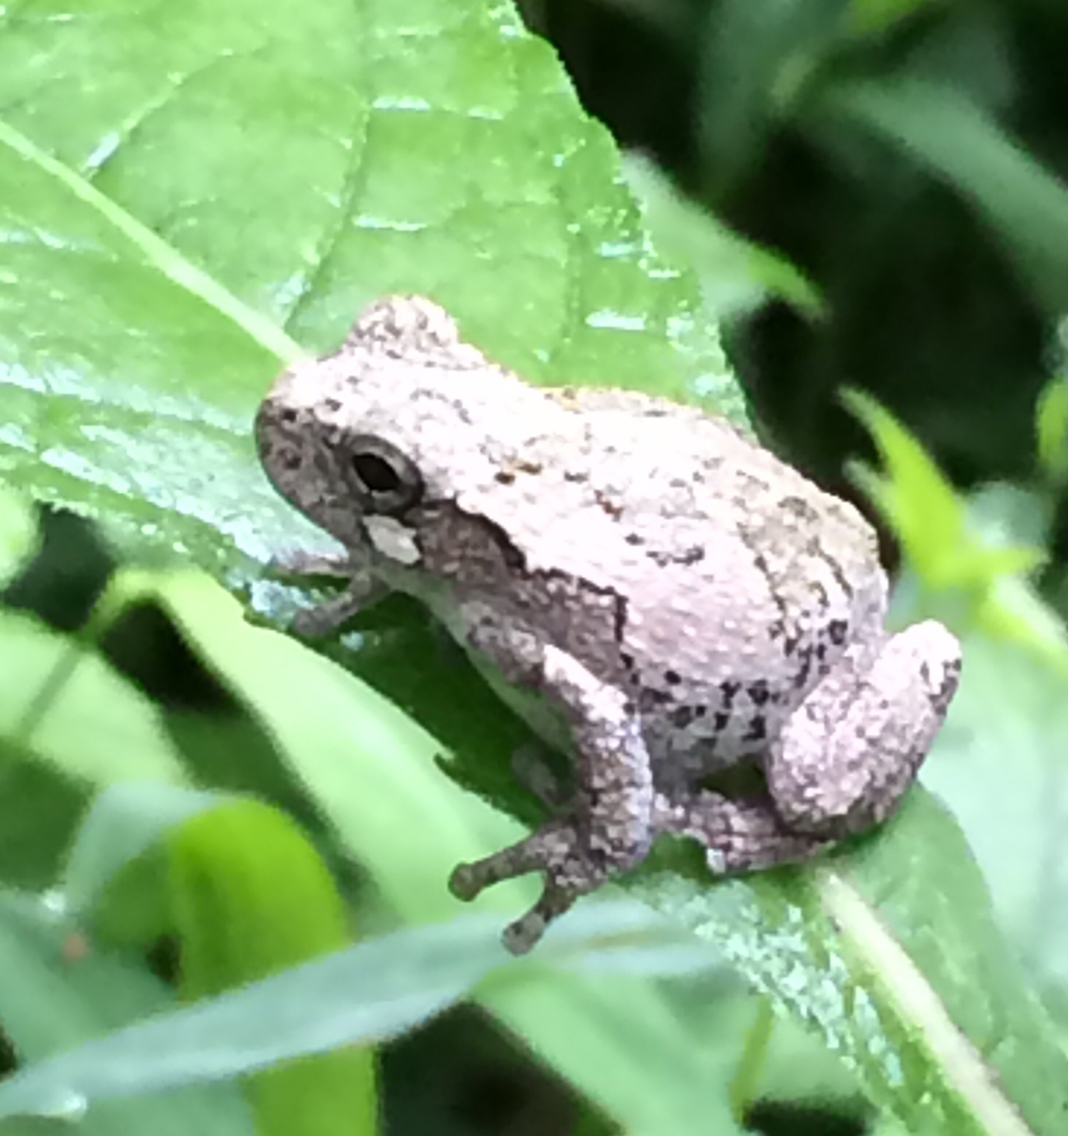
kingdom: Animalia
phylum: Chordata
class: Amphibia
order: Anura
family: Hylidae
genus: Hyla
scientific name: Hyla
